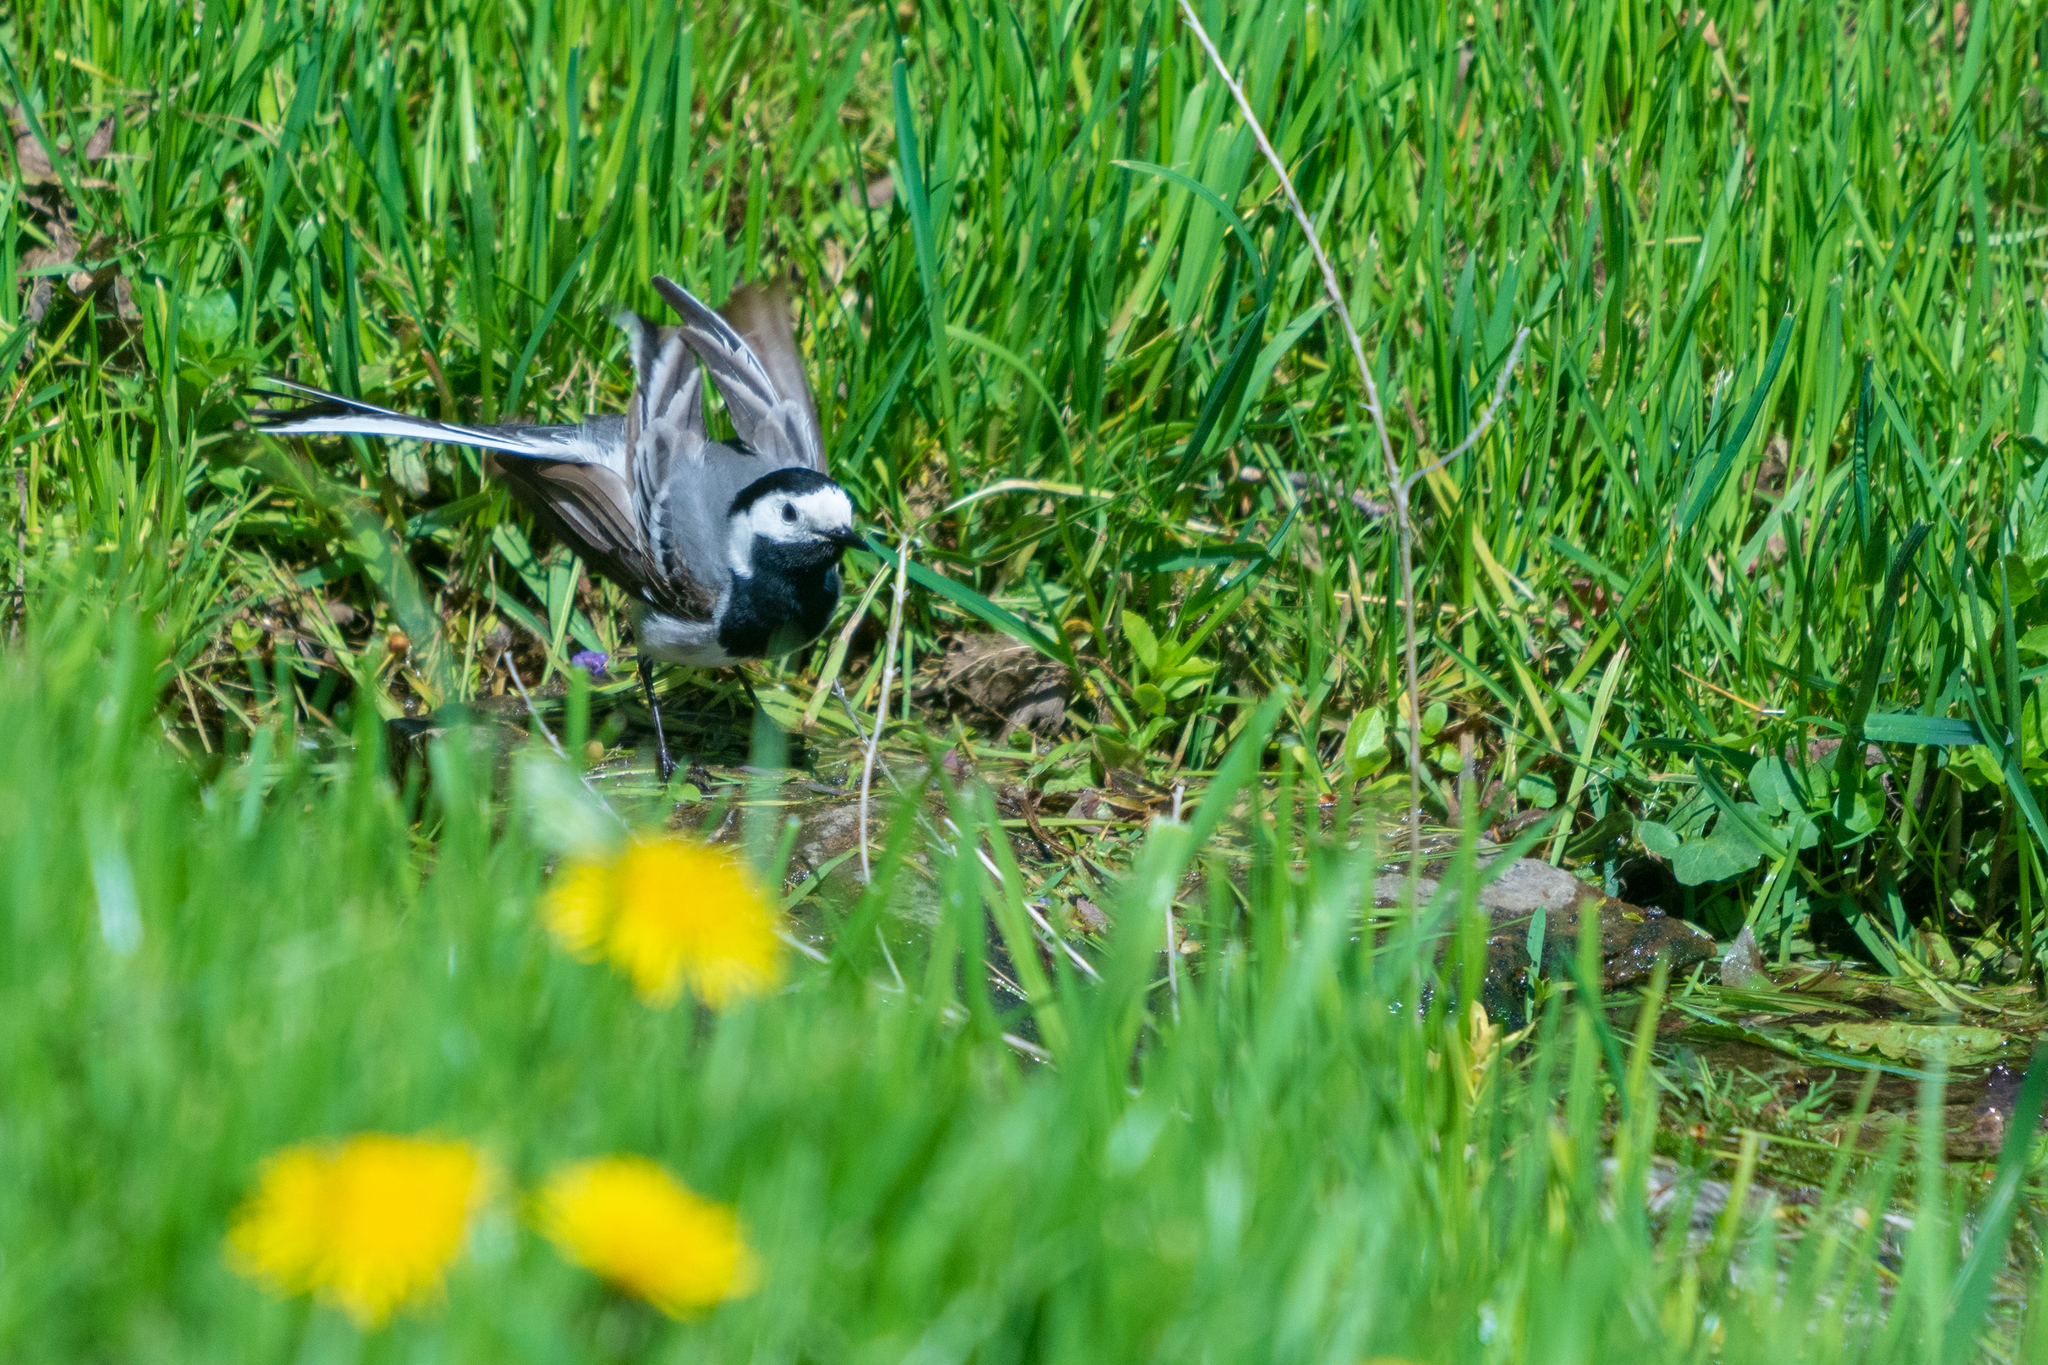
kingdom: Animalia
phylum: Chordata
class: Aves
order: Passeriformes
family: Motacillidae
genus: Motacilla
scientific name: Motacilla alba
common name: White wagtail
